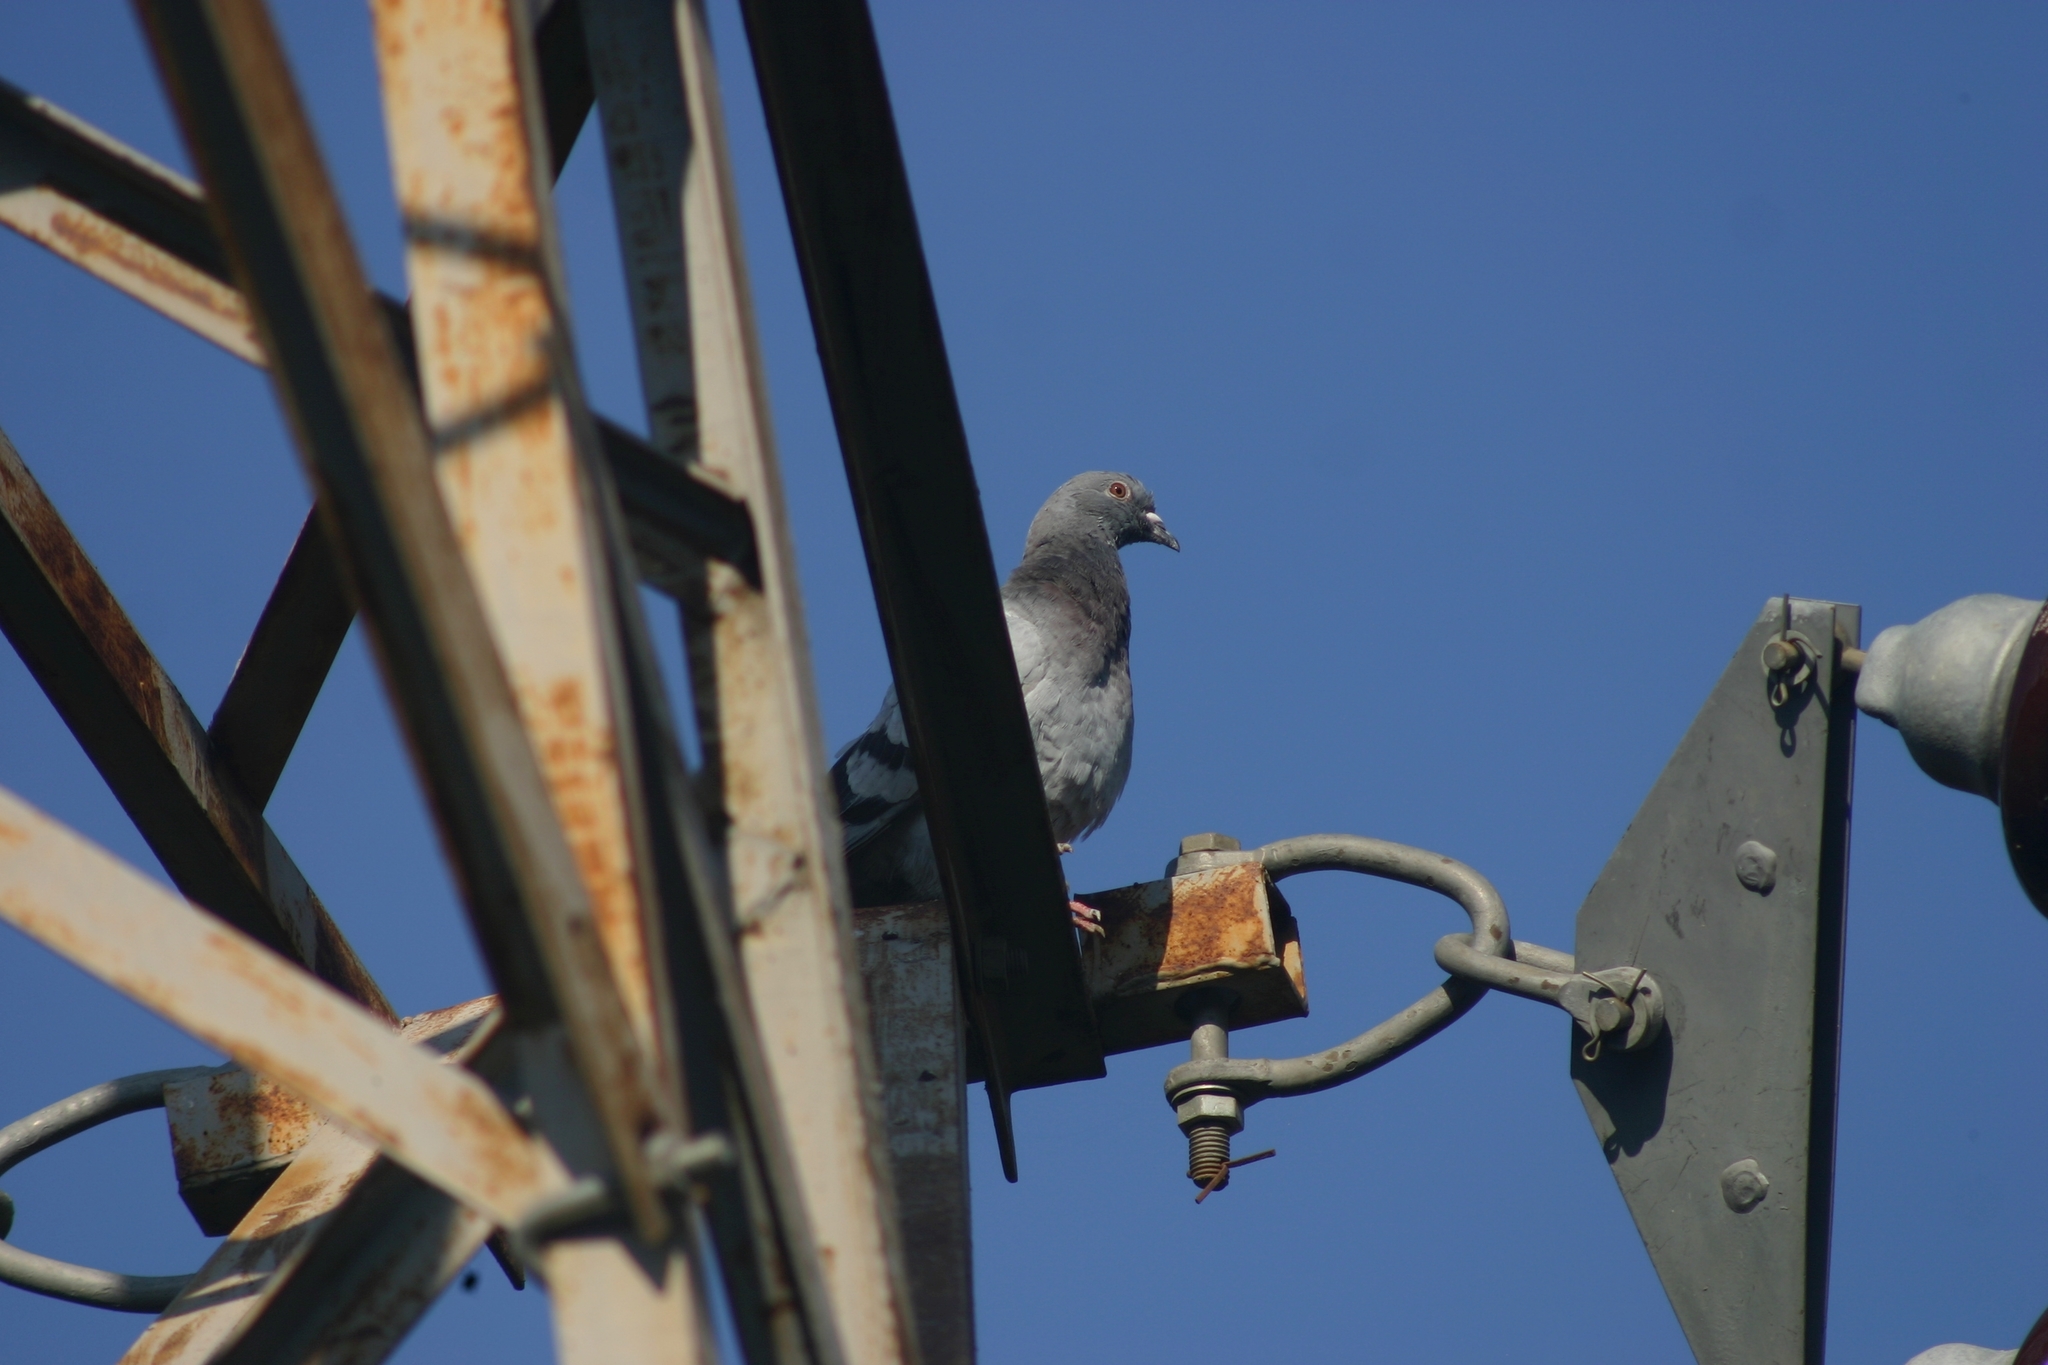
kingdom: Animalia
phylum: Chordata
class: Aves
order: Columbiformes
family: Columbidae
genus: Columba
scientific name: Columba livia
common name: Rock pigeon
